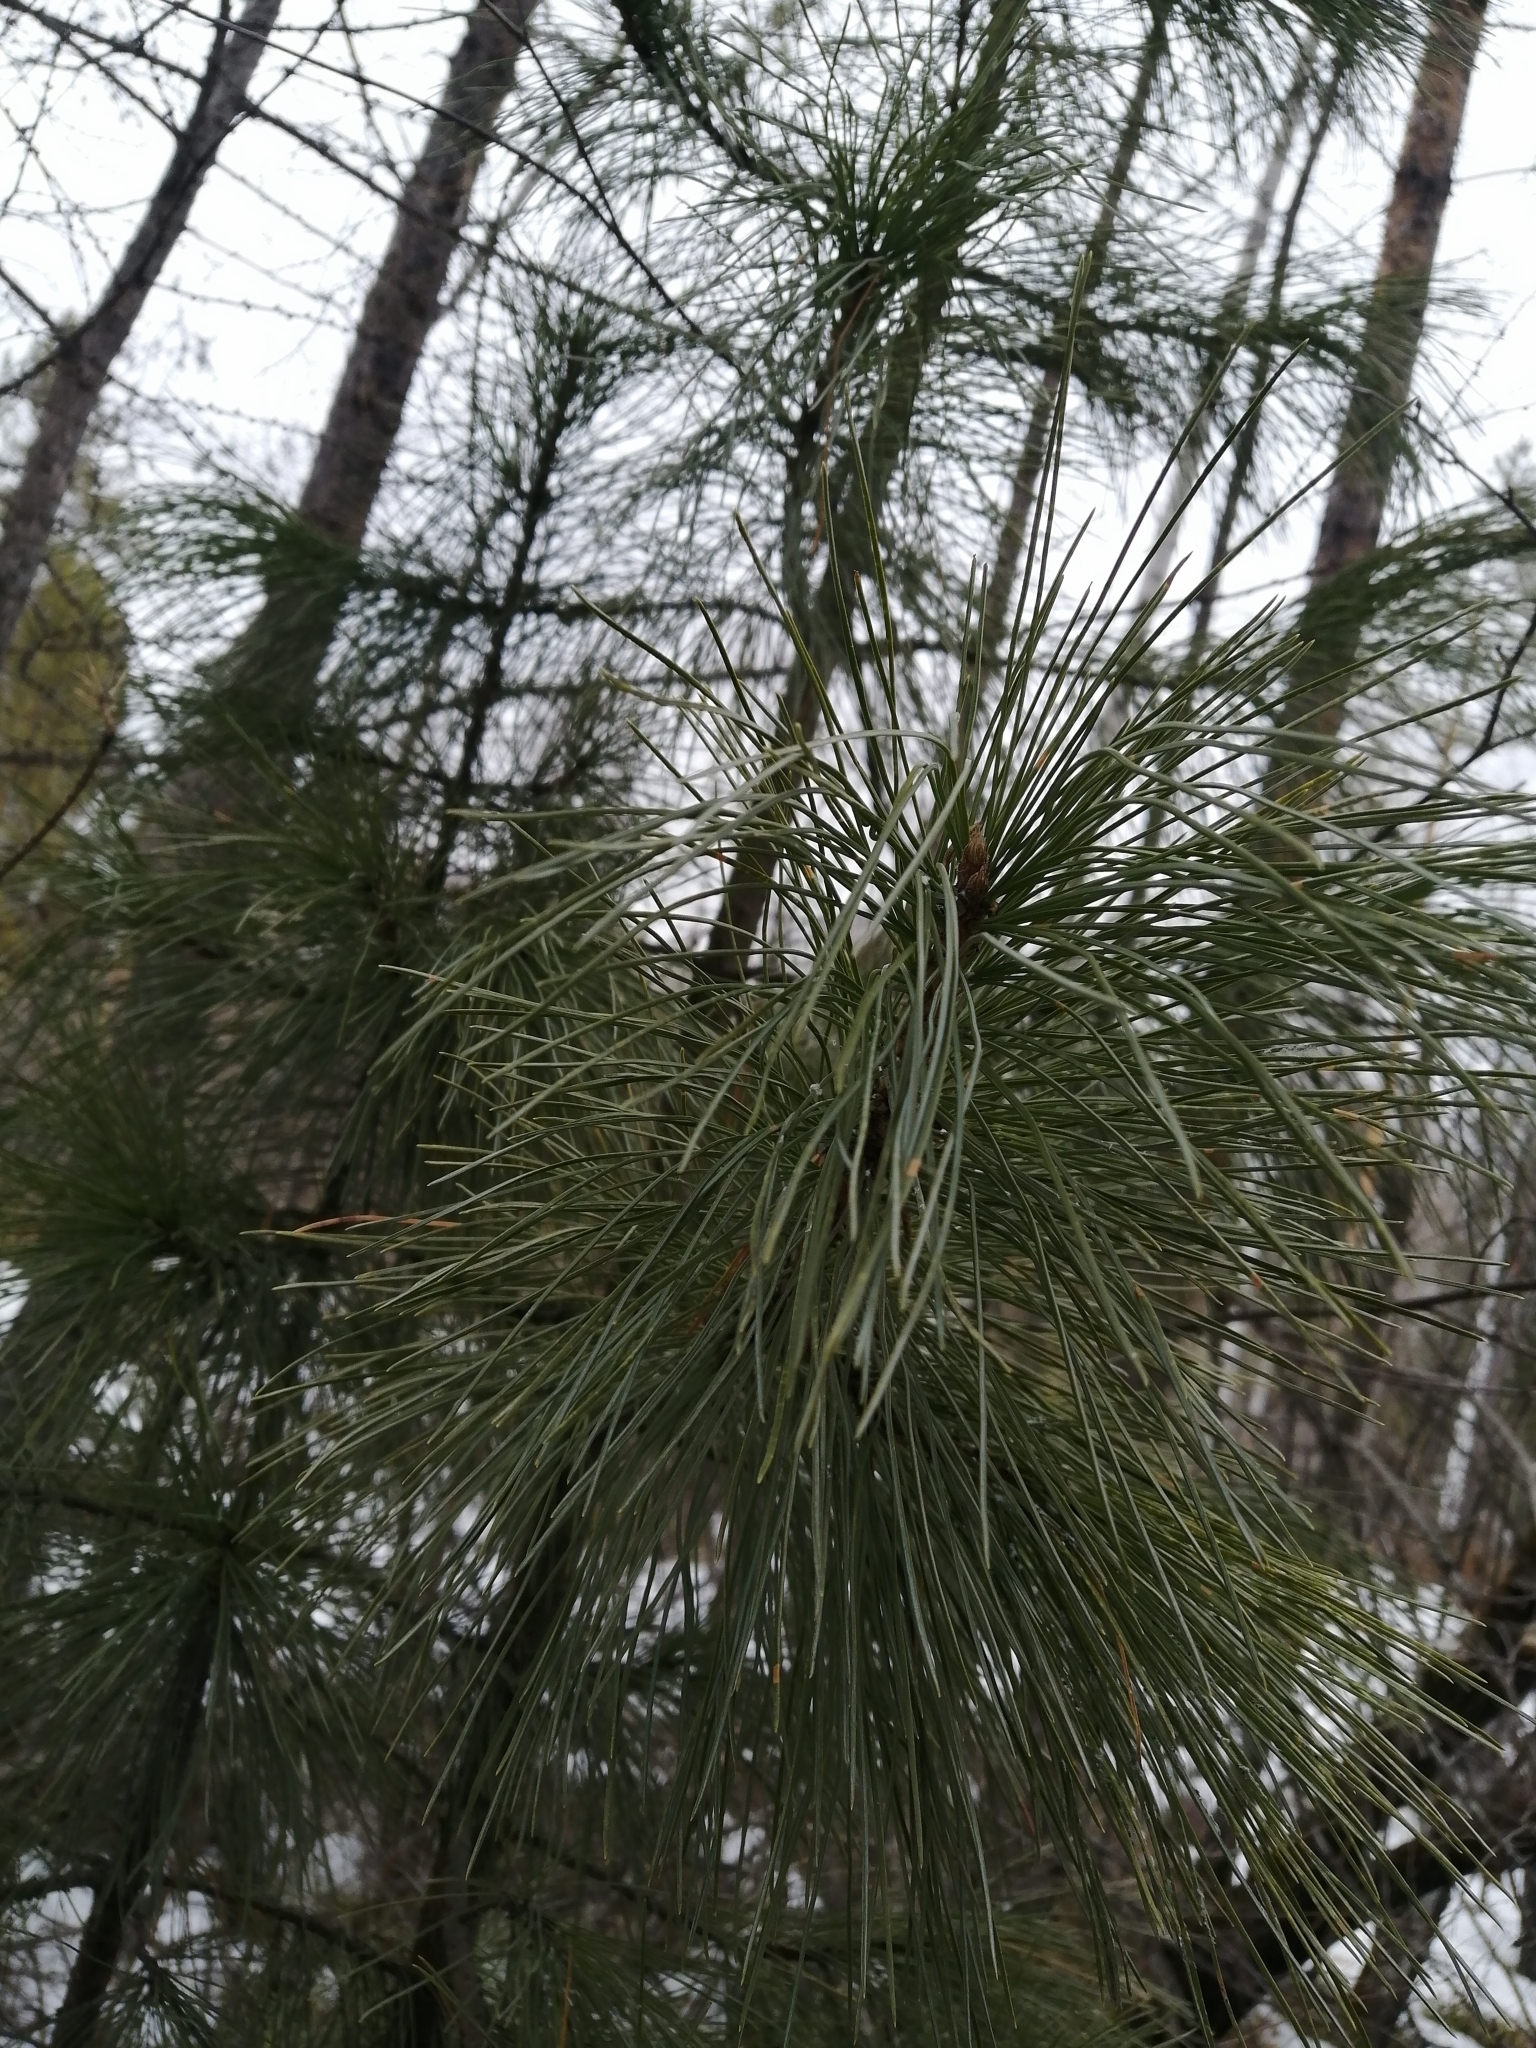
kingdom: Plantae
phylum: Tracheophyta
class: Pinopsida
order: Pinales
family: Pinaceae
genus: Pinus
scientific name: Pinus sibirica
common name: Siberian pine
